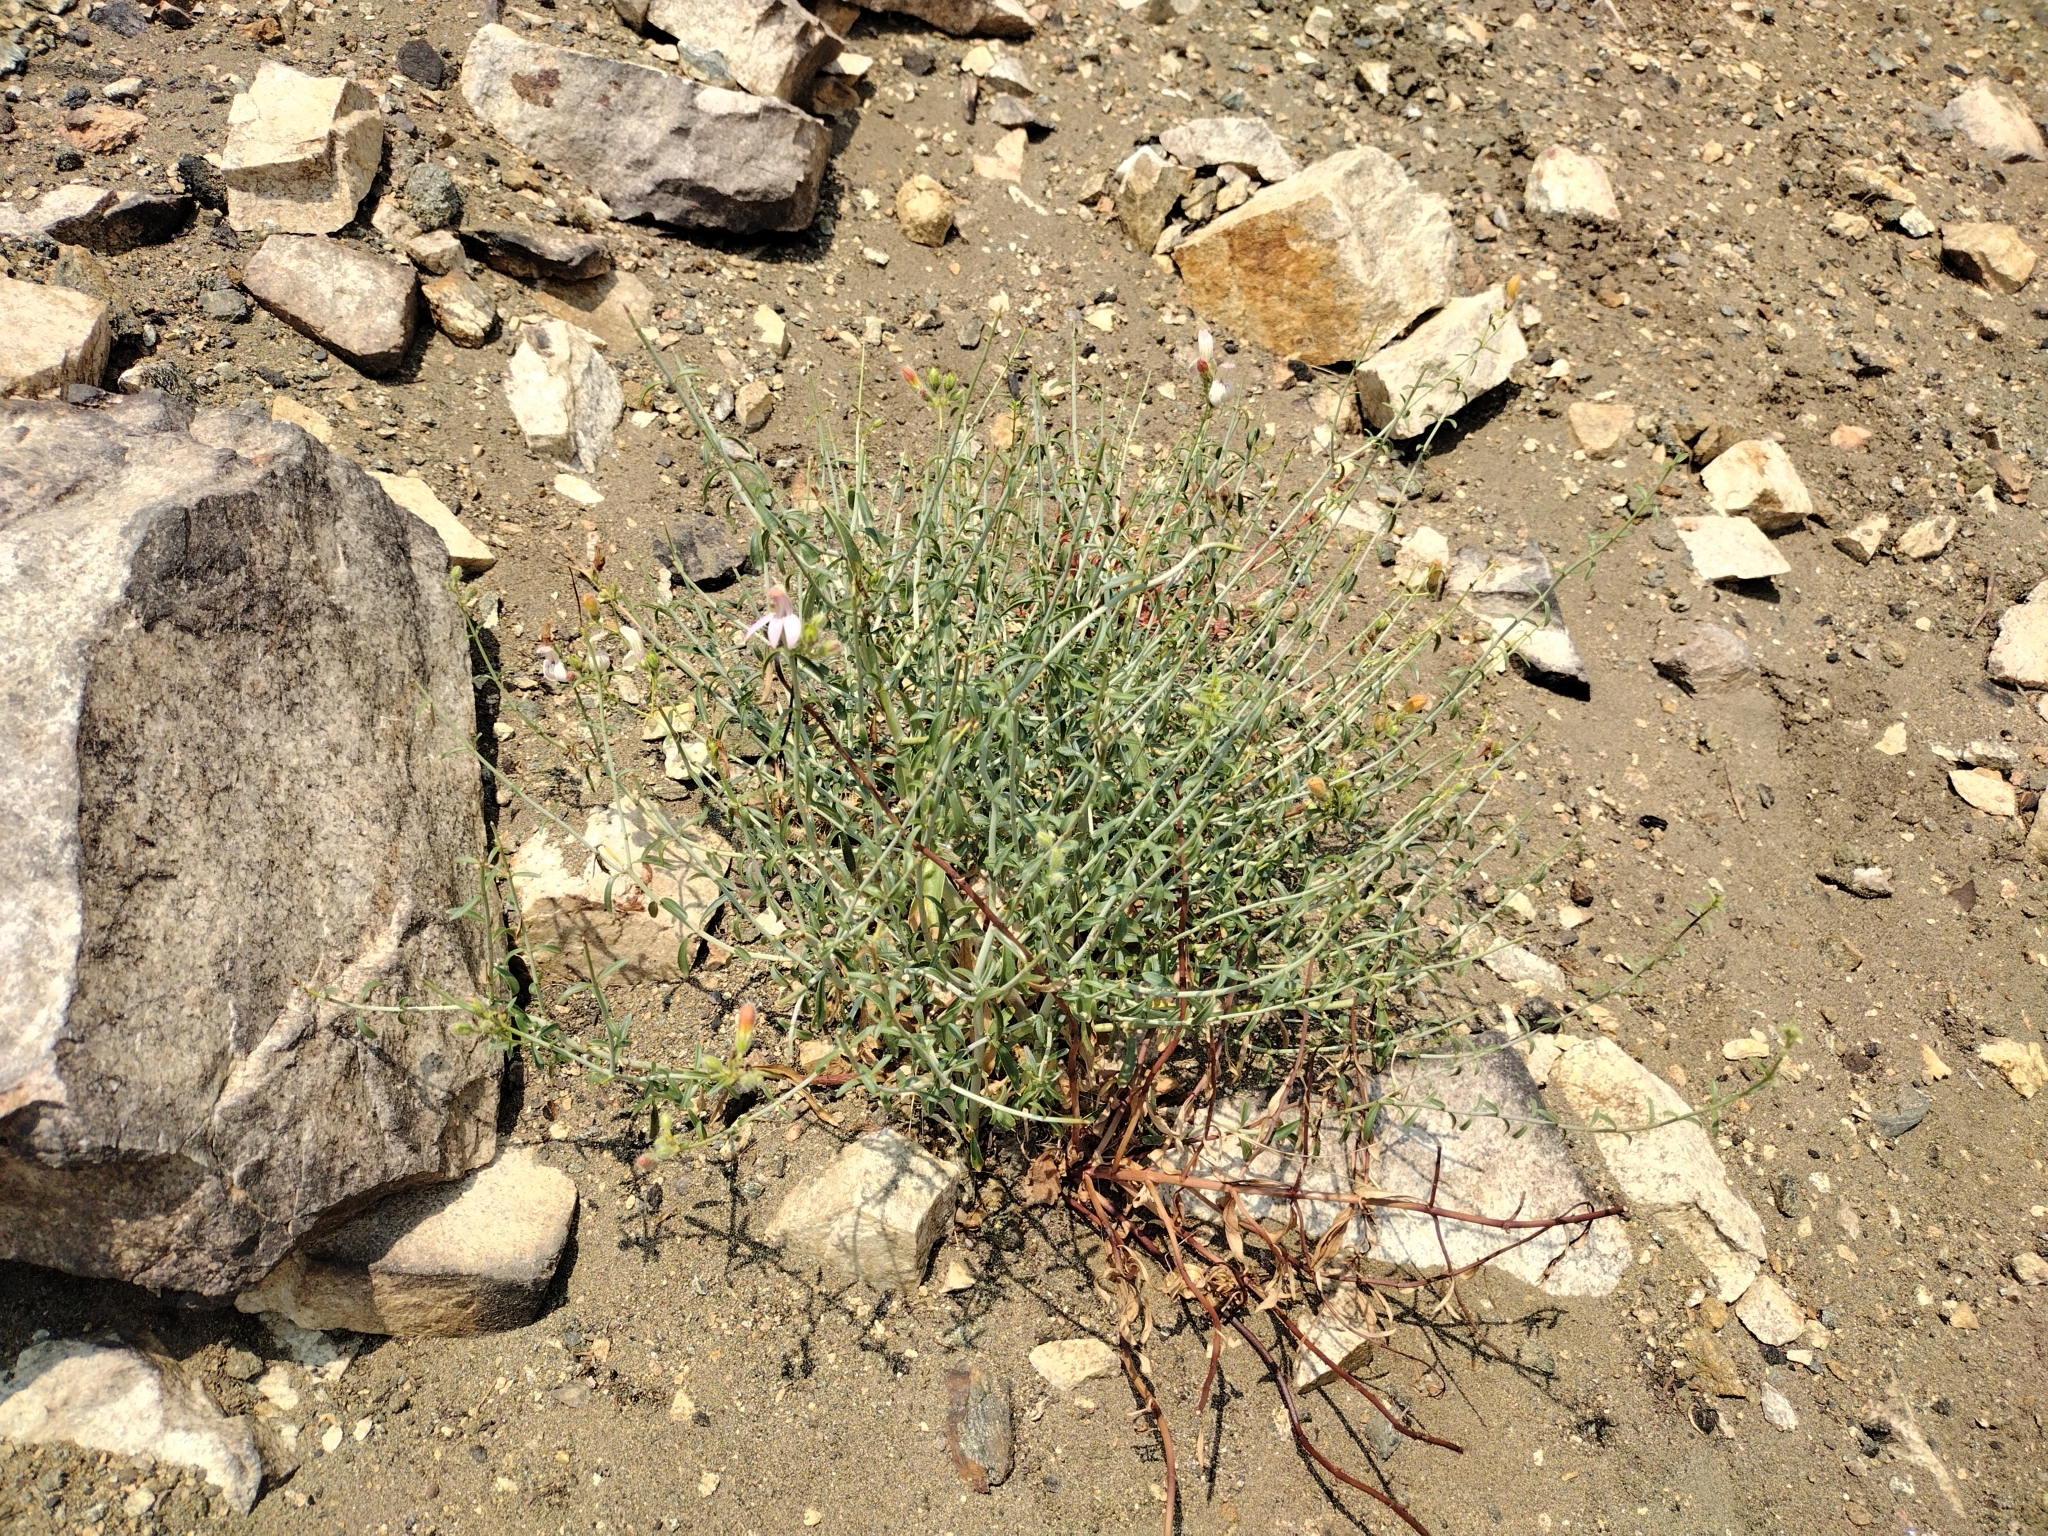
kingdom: Plantae
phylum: Tracheophyta
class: Magnoliopsida
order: Lamiales
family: Plantaginaceae
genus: Keckiella
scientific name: Keckiella breviflora
